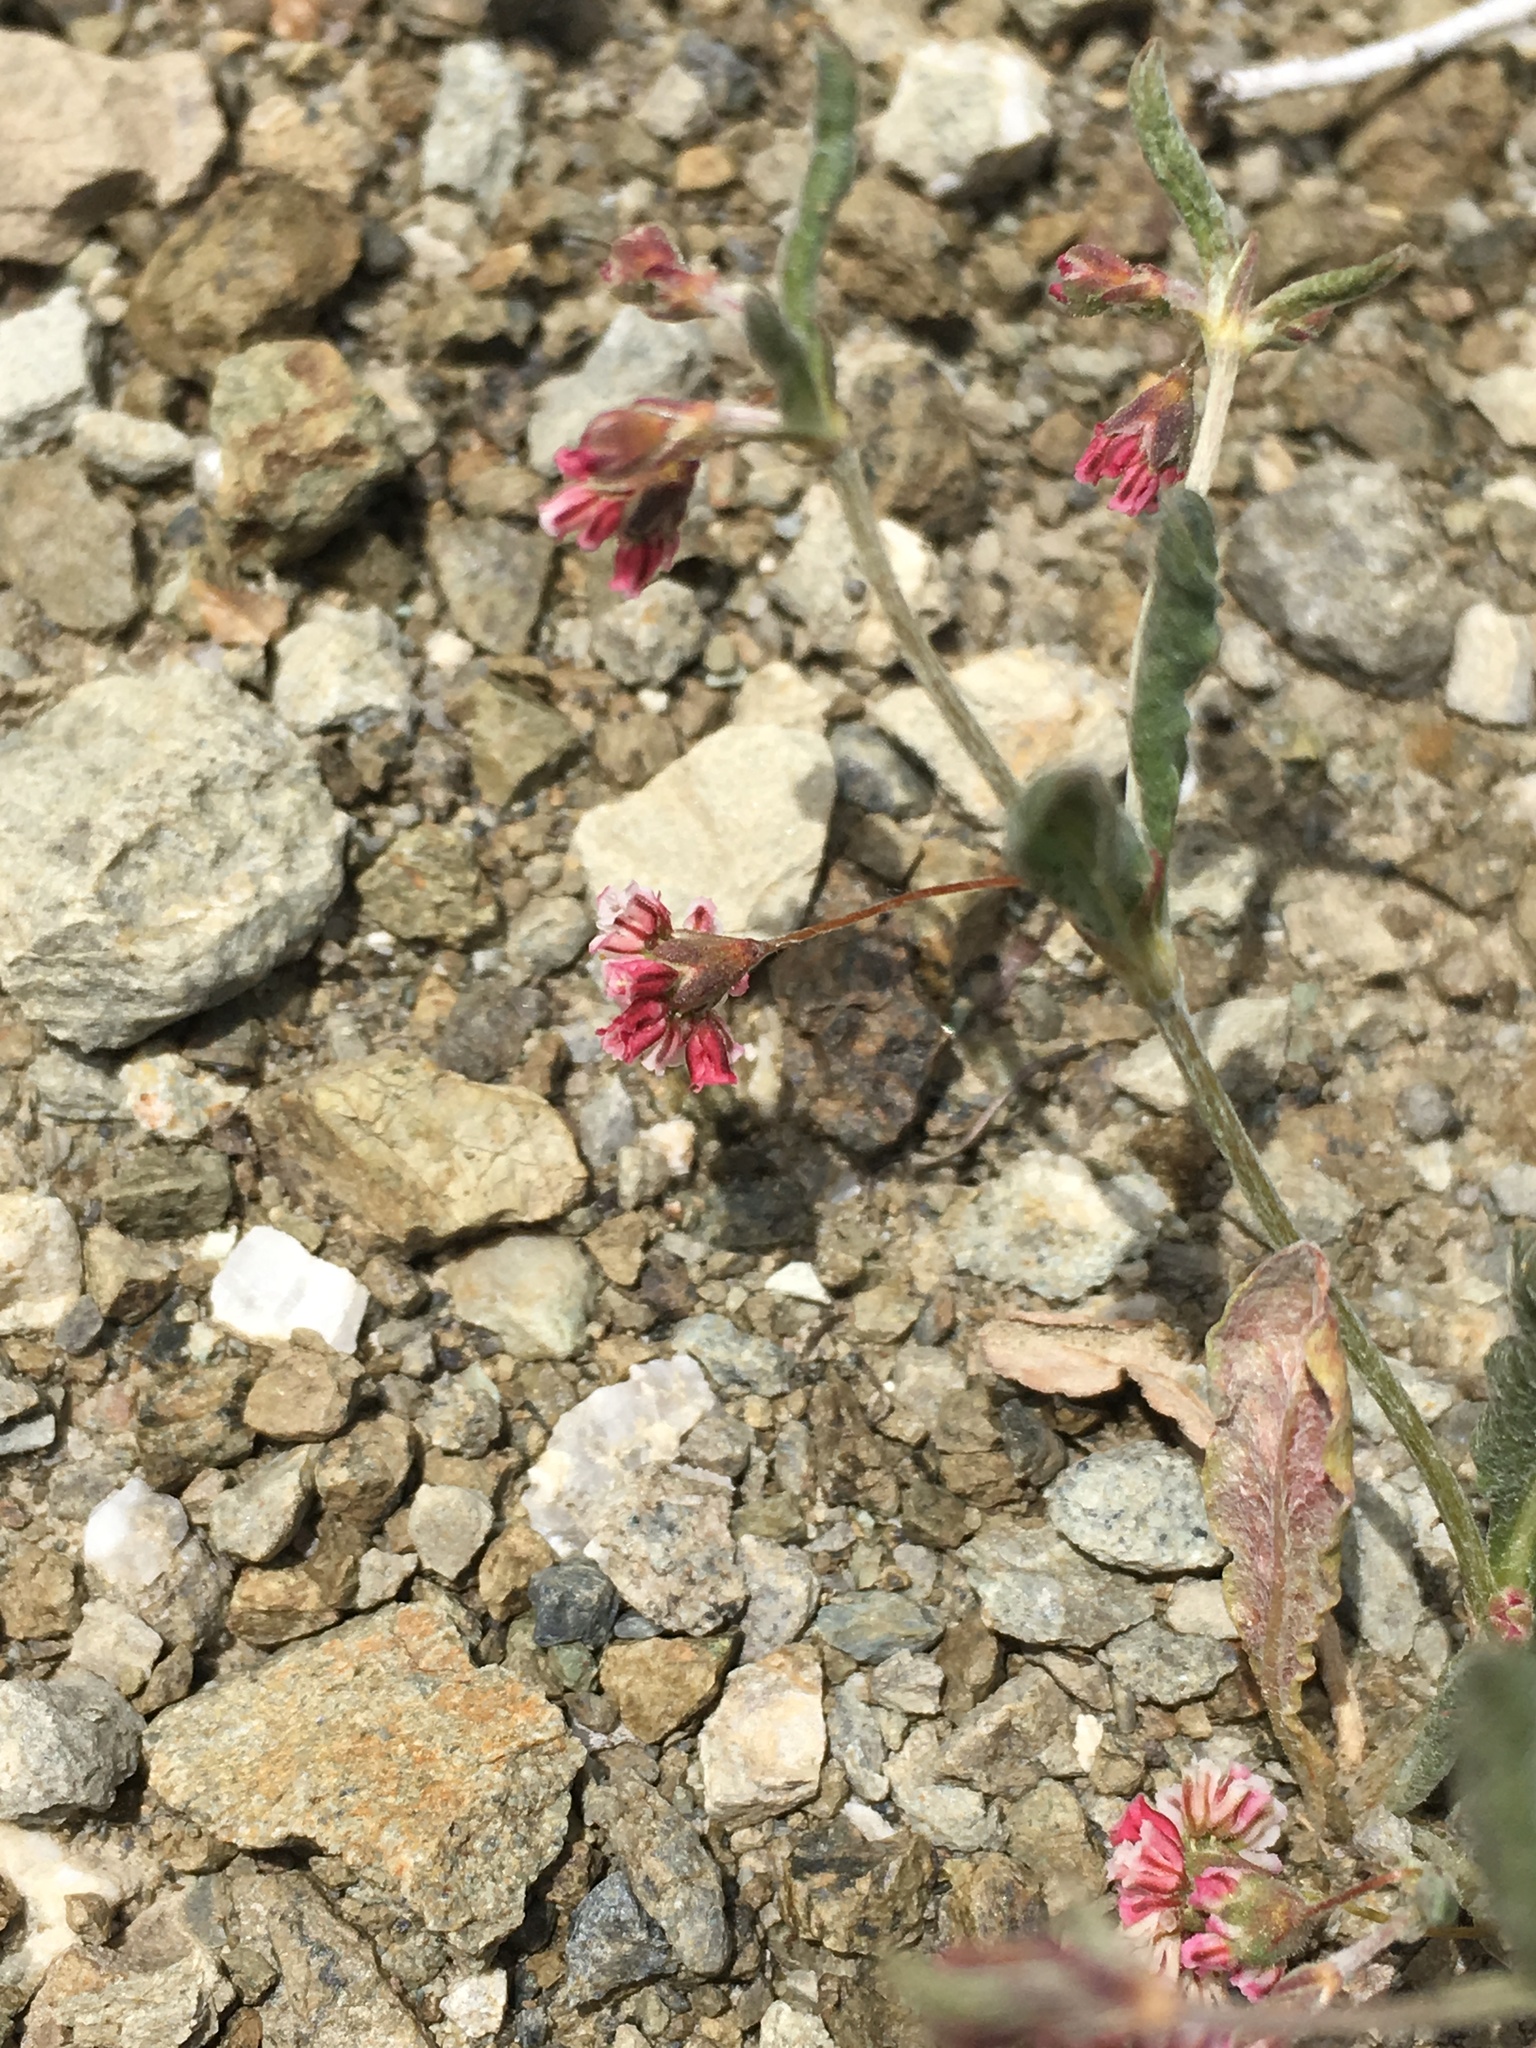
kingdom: Plantae
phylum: Tracheophyta
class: Magnoliopsida
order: Caryophyllales
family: Polygonaceae
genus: Eriogonum
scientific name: Eriogonum gracillimum
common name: Rose-and-white wild buckwheat
